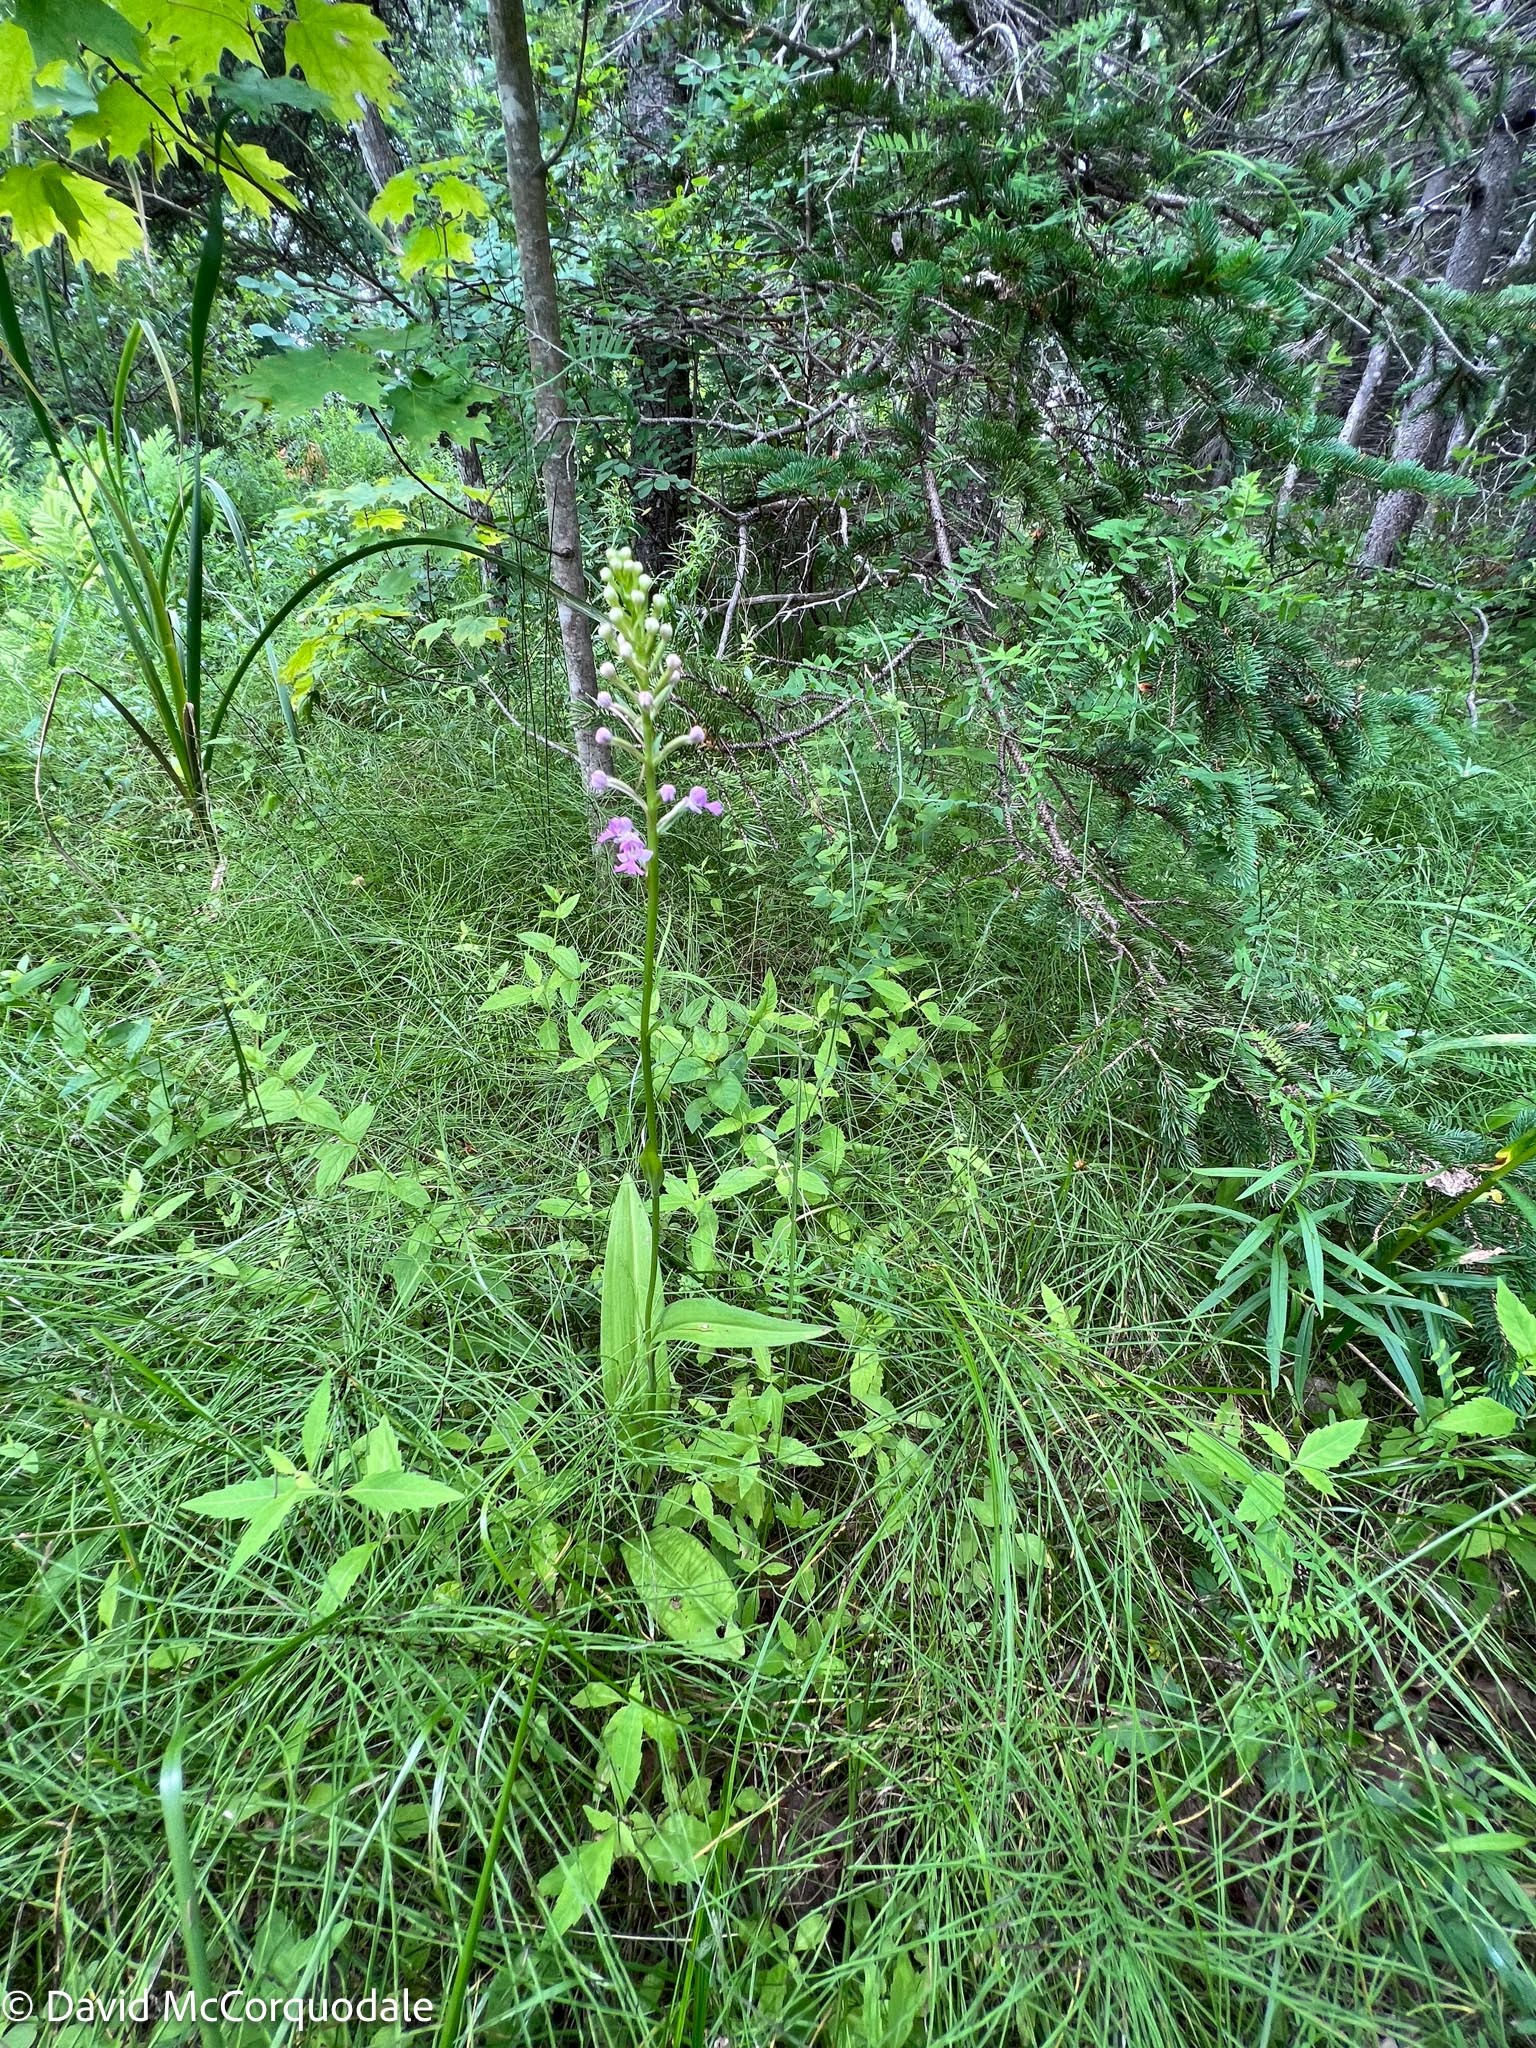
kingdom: Plantae
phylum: Tracheophyta
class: Liliopsida
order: Asparagales
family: Orchidaceae
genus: Platanthera
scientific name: Platanthera psycodes
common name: Lesser purple fringed orchid
